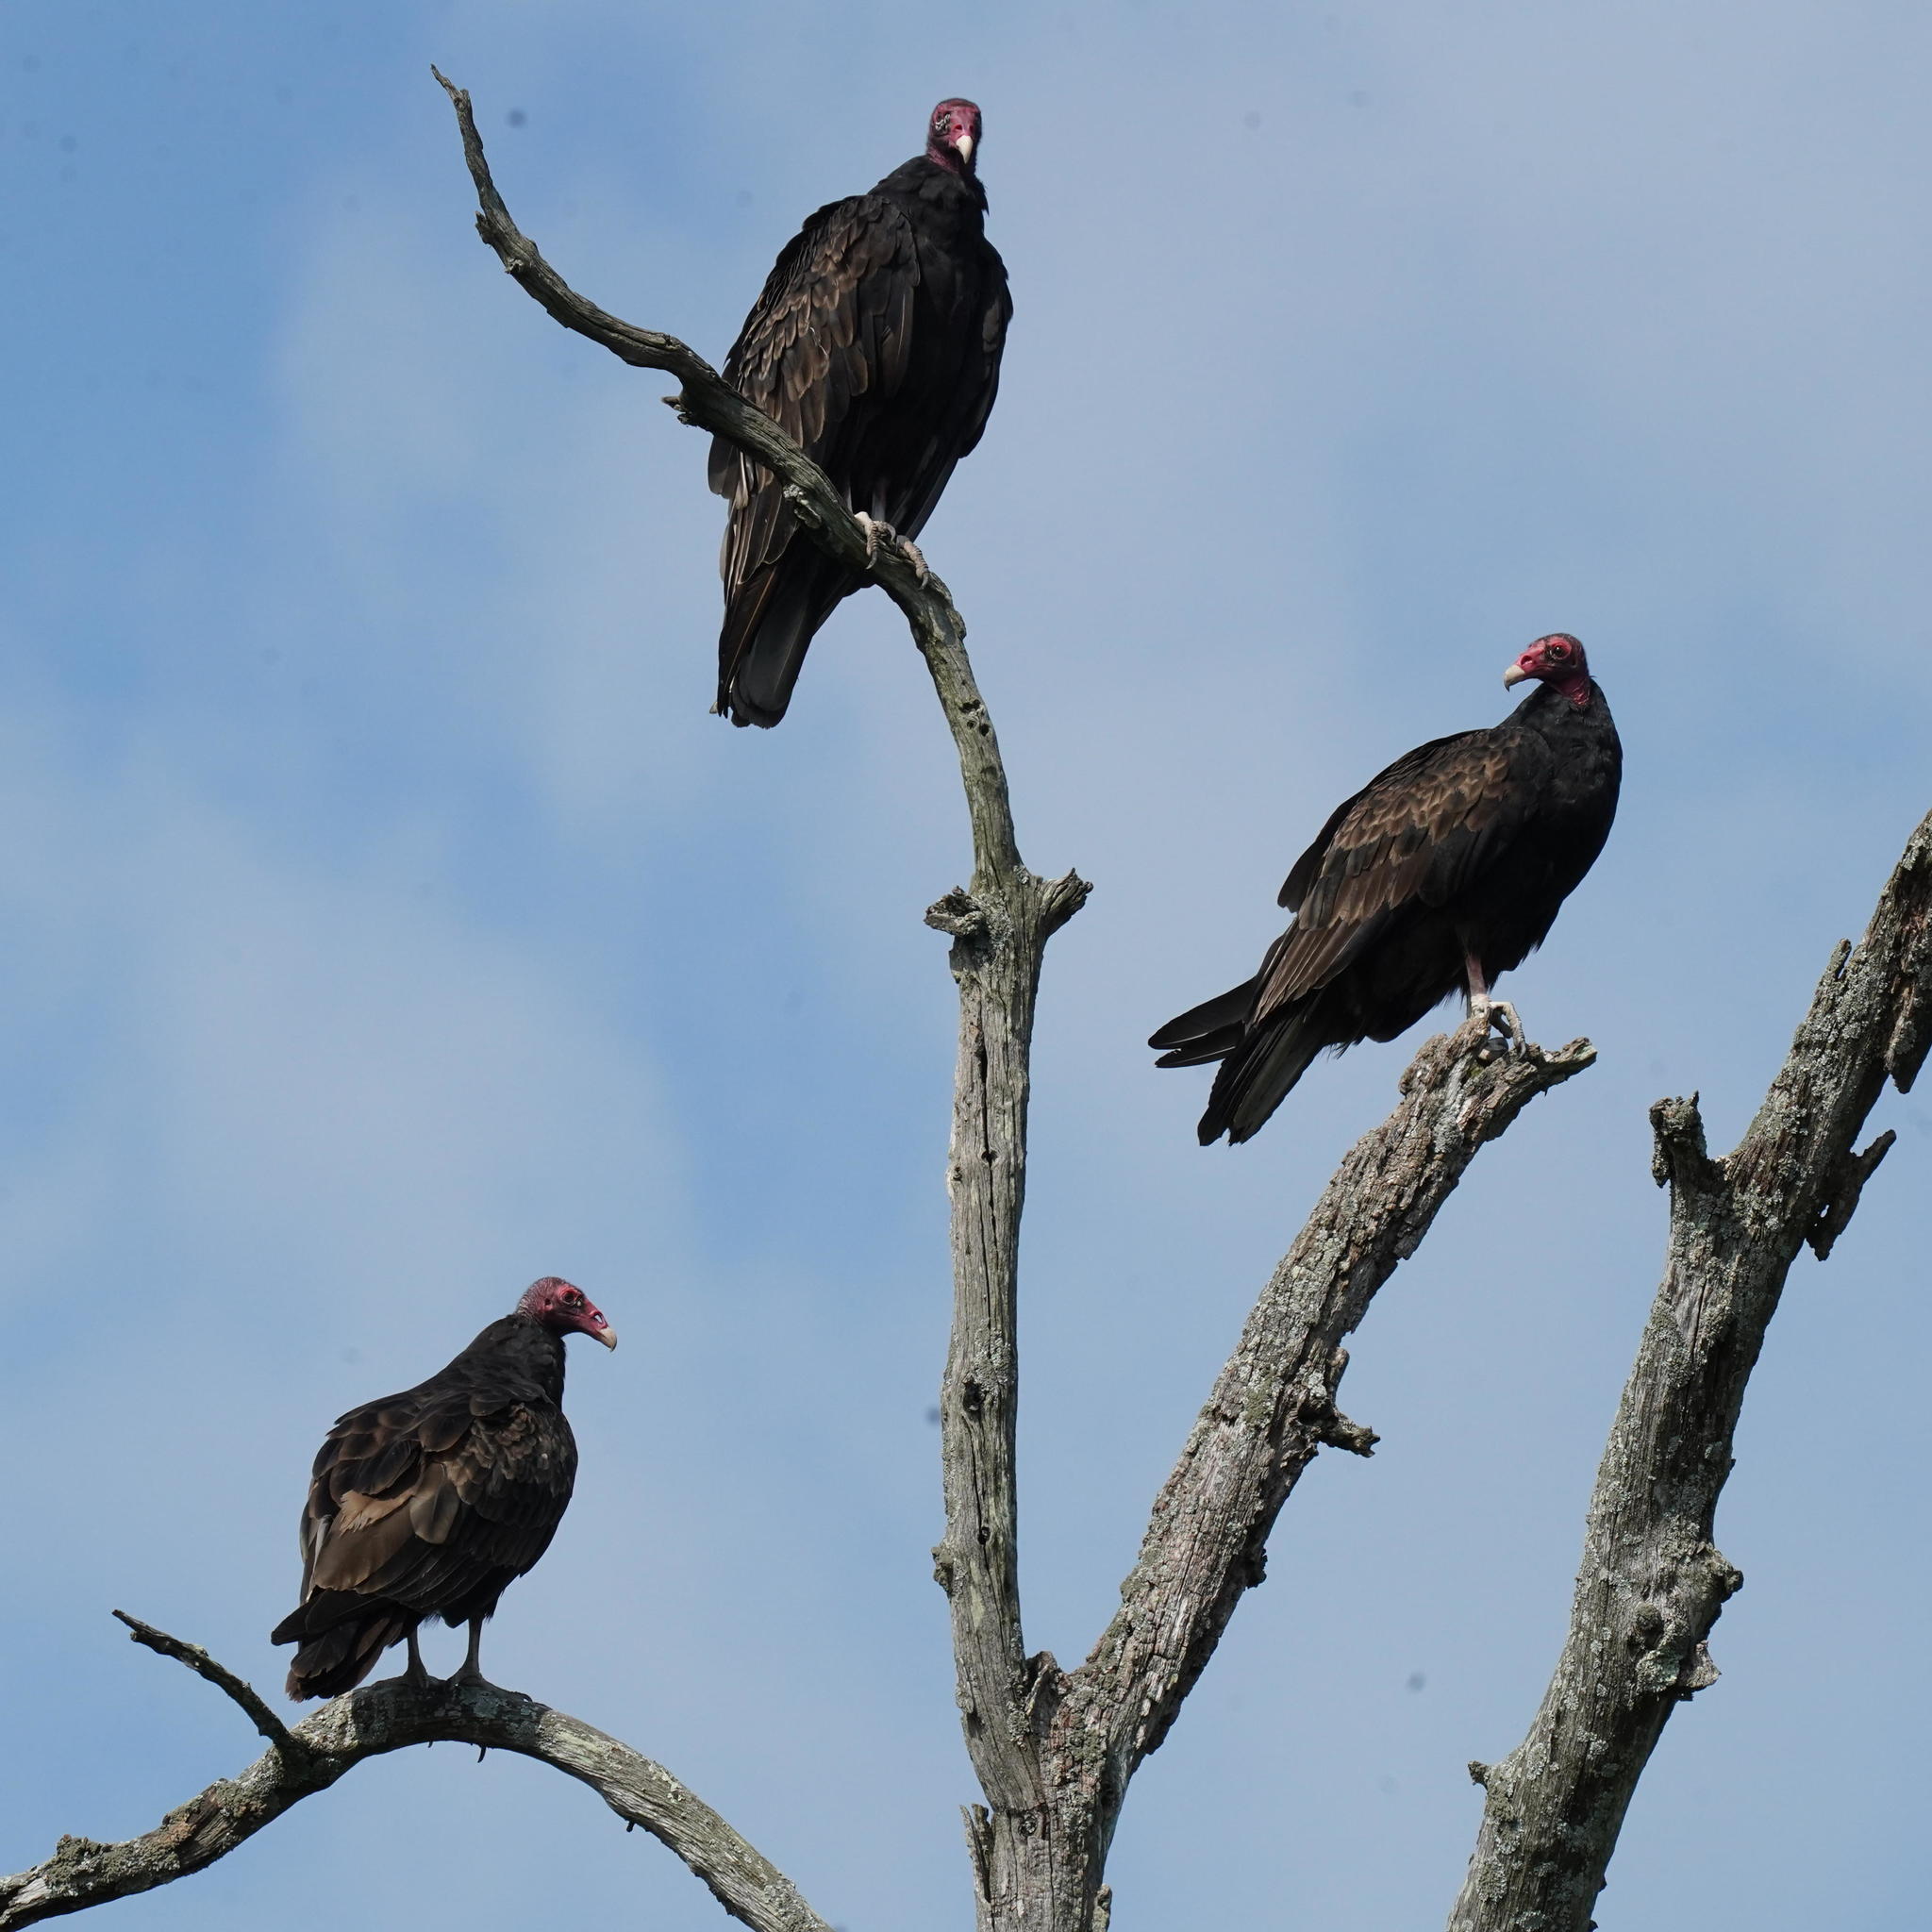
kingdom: Animalia
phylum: Chordata
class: Aves
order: Accipitriformes
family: Cathartidae
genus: Cathartes
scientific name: Cathartes aura
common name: Turkey vulture
